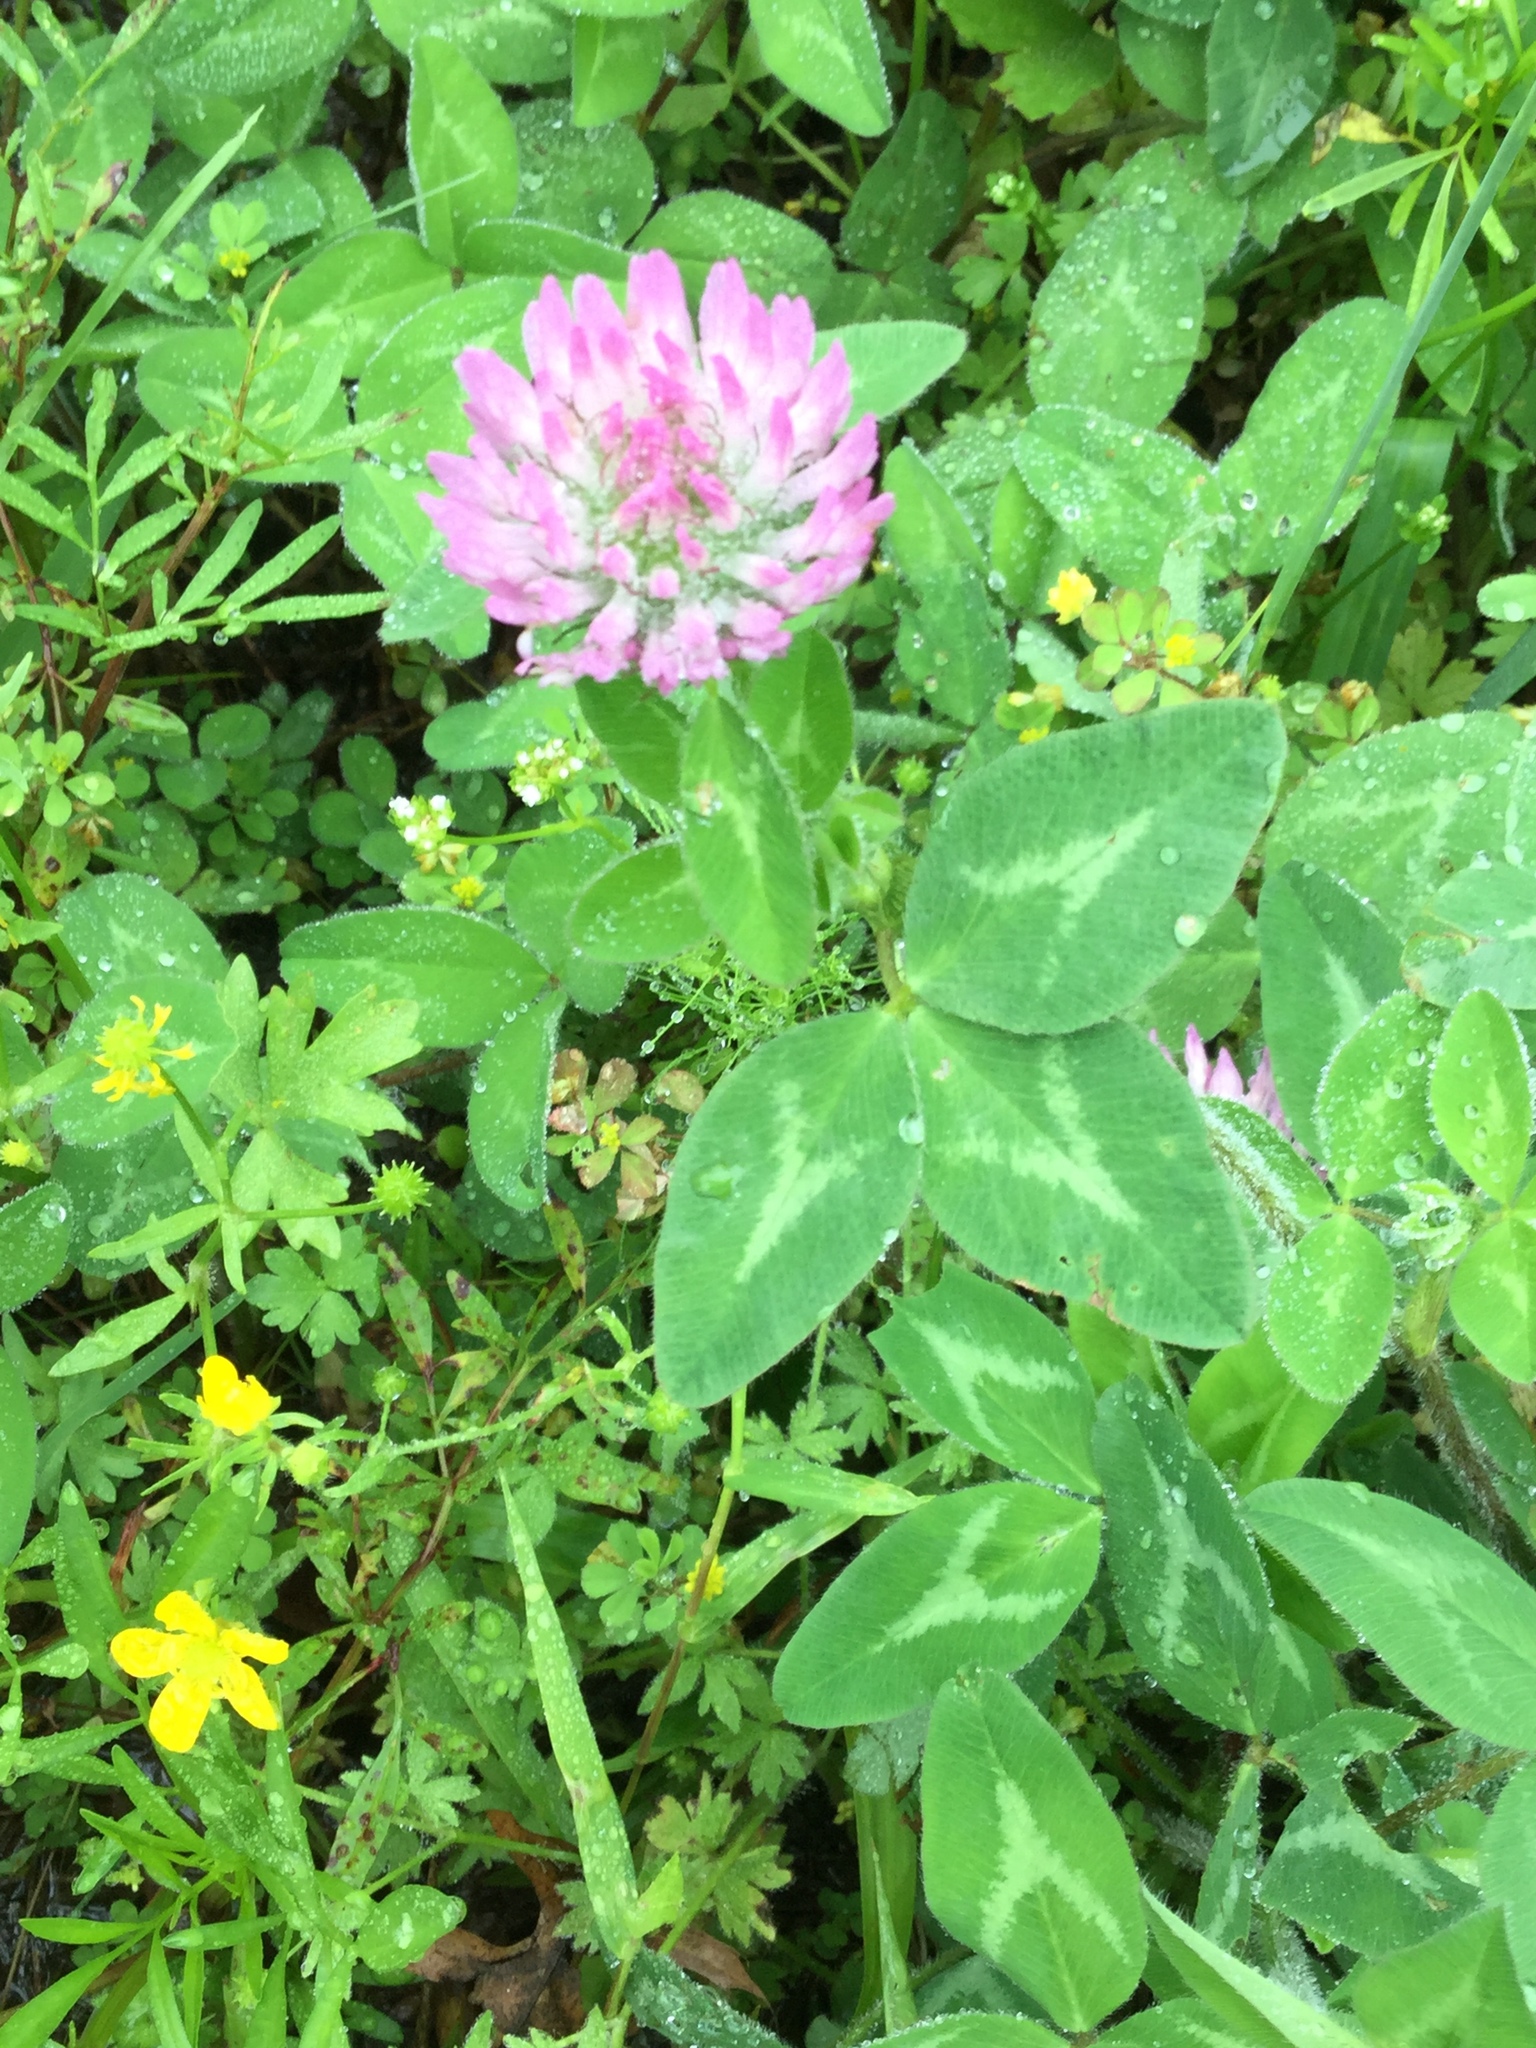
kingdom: Plantae
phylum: Tracheophyta
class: Magnoliopsida
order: Fabales
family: Fabaceae
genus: Trifolium
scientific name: Trifolium pratense
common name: Red clover
